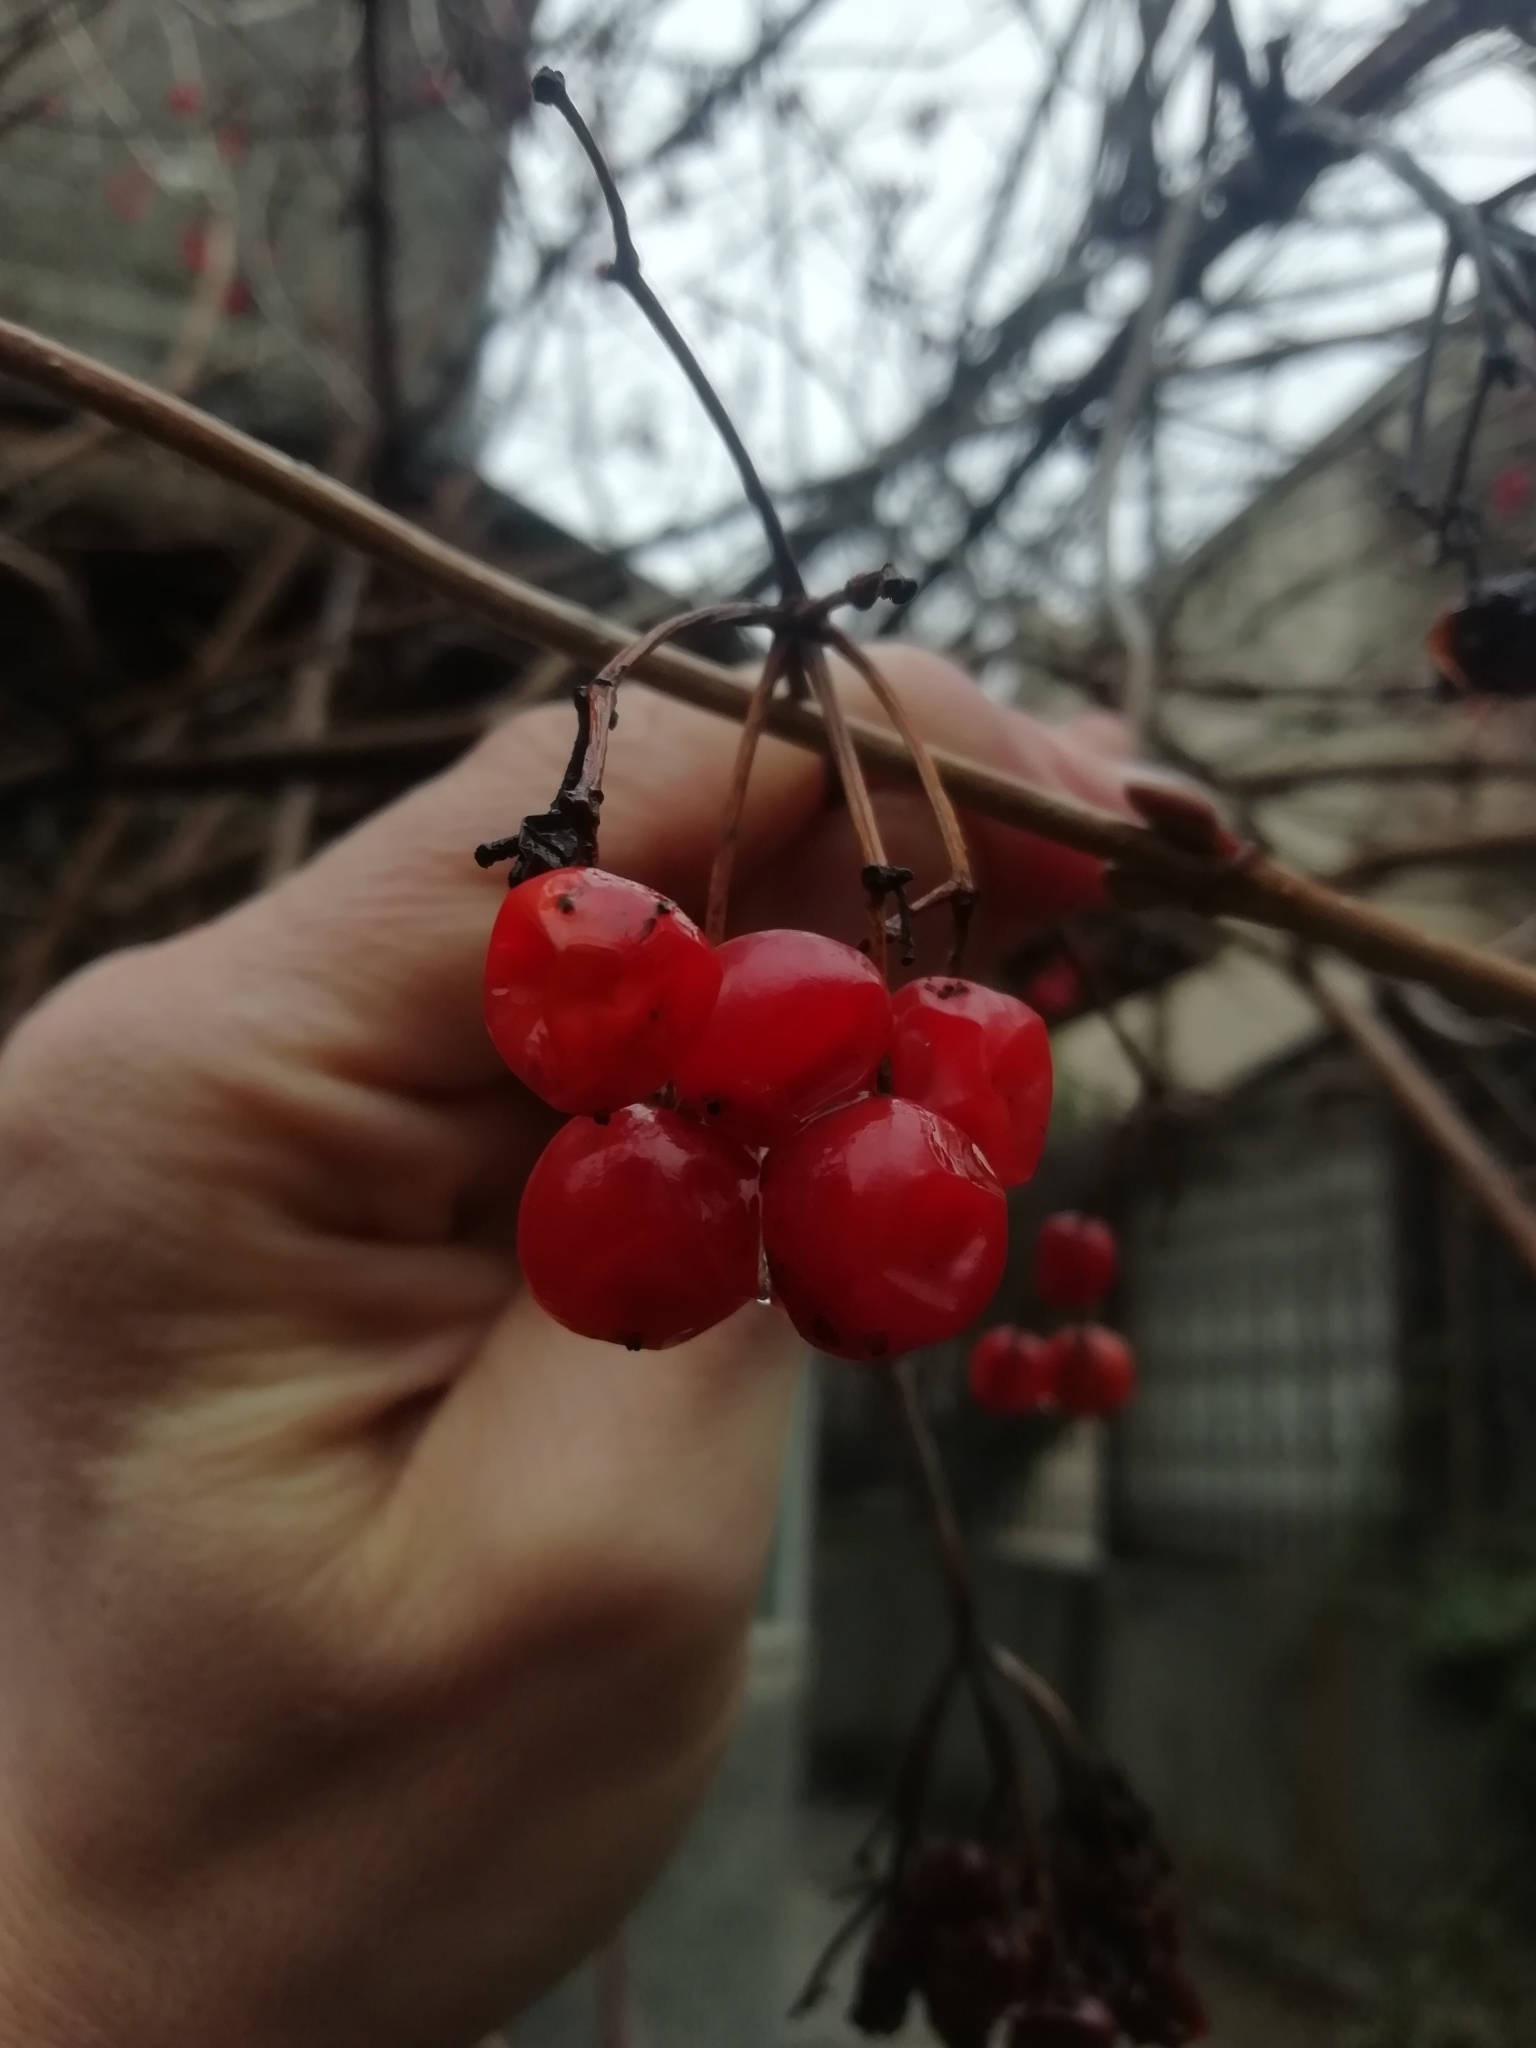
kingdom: Plantae
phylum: Tracheophyta
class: Magnoliopsida
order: Dipsacales
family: Viburnaceae
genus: Viburnum
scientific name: Viburnum opulus
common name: Guelder-rose
